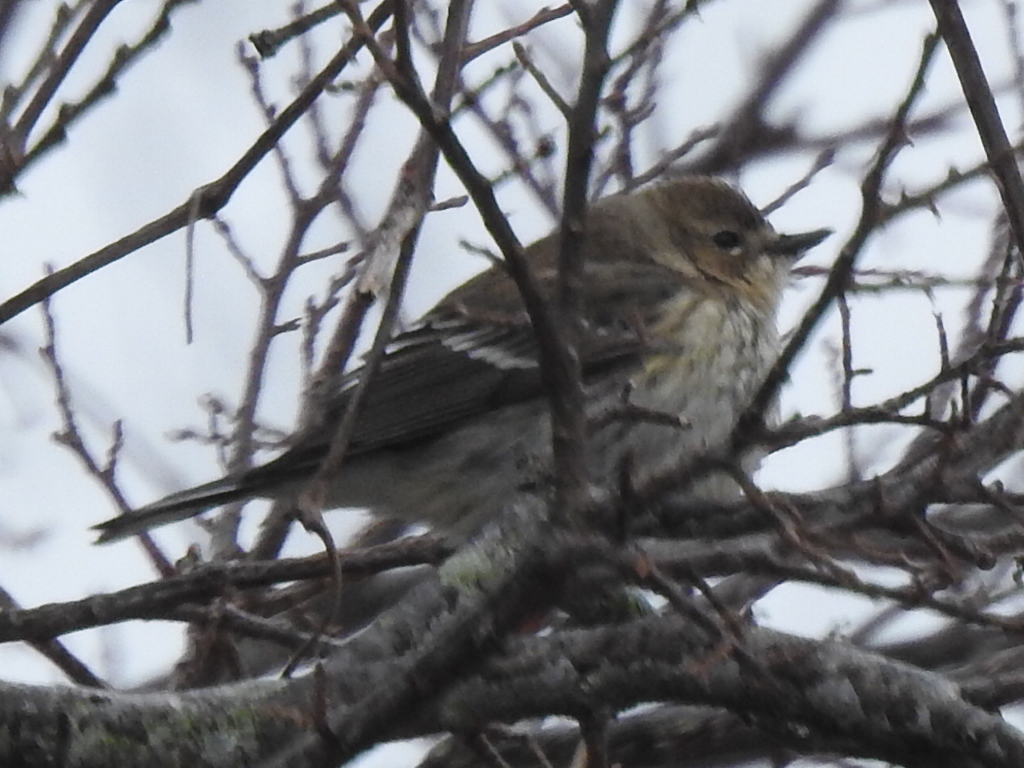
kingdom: Animalia
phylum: Chordata
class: Aves
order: Passeriformes
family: Parulidae
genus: Setophaga
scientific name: Setophaga coronata
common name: Myrtle warbler
